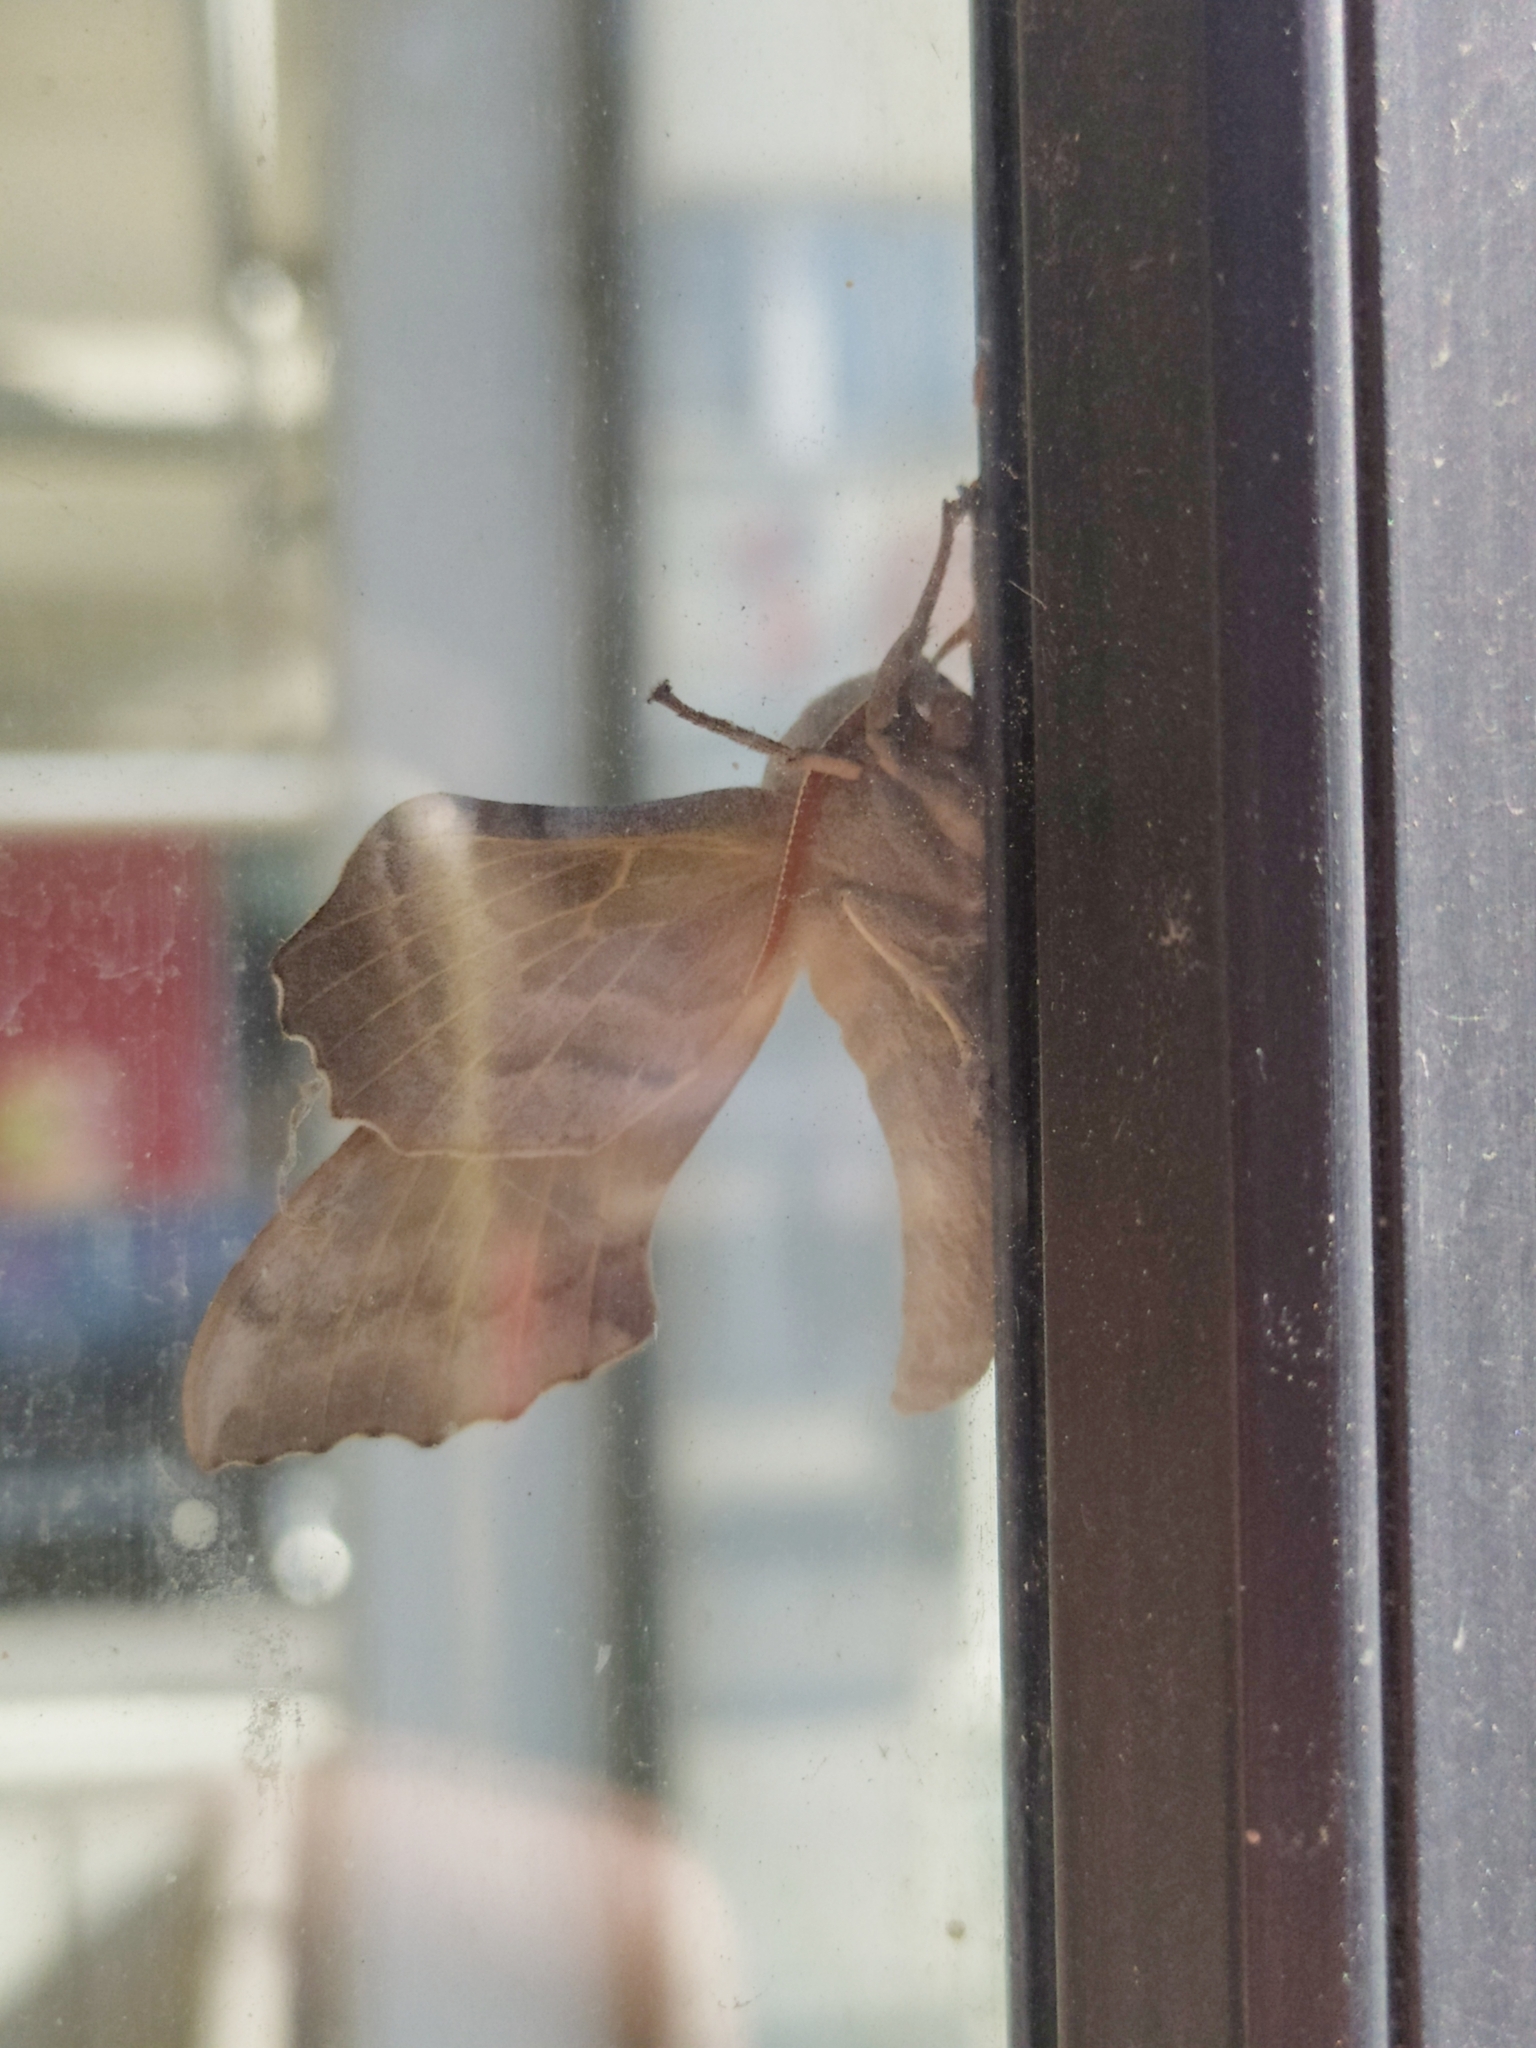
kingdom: Animalia
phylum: Arthropoda
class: Insecta
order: Lepidoptera
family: Sphingidae
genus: Laothoe
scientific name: Laothoe populi
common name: Poplar hawk-moth
